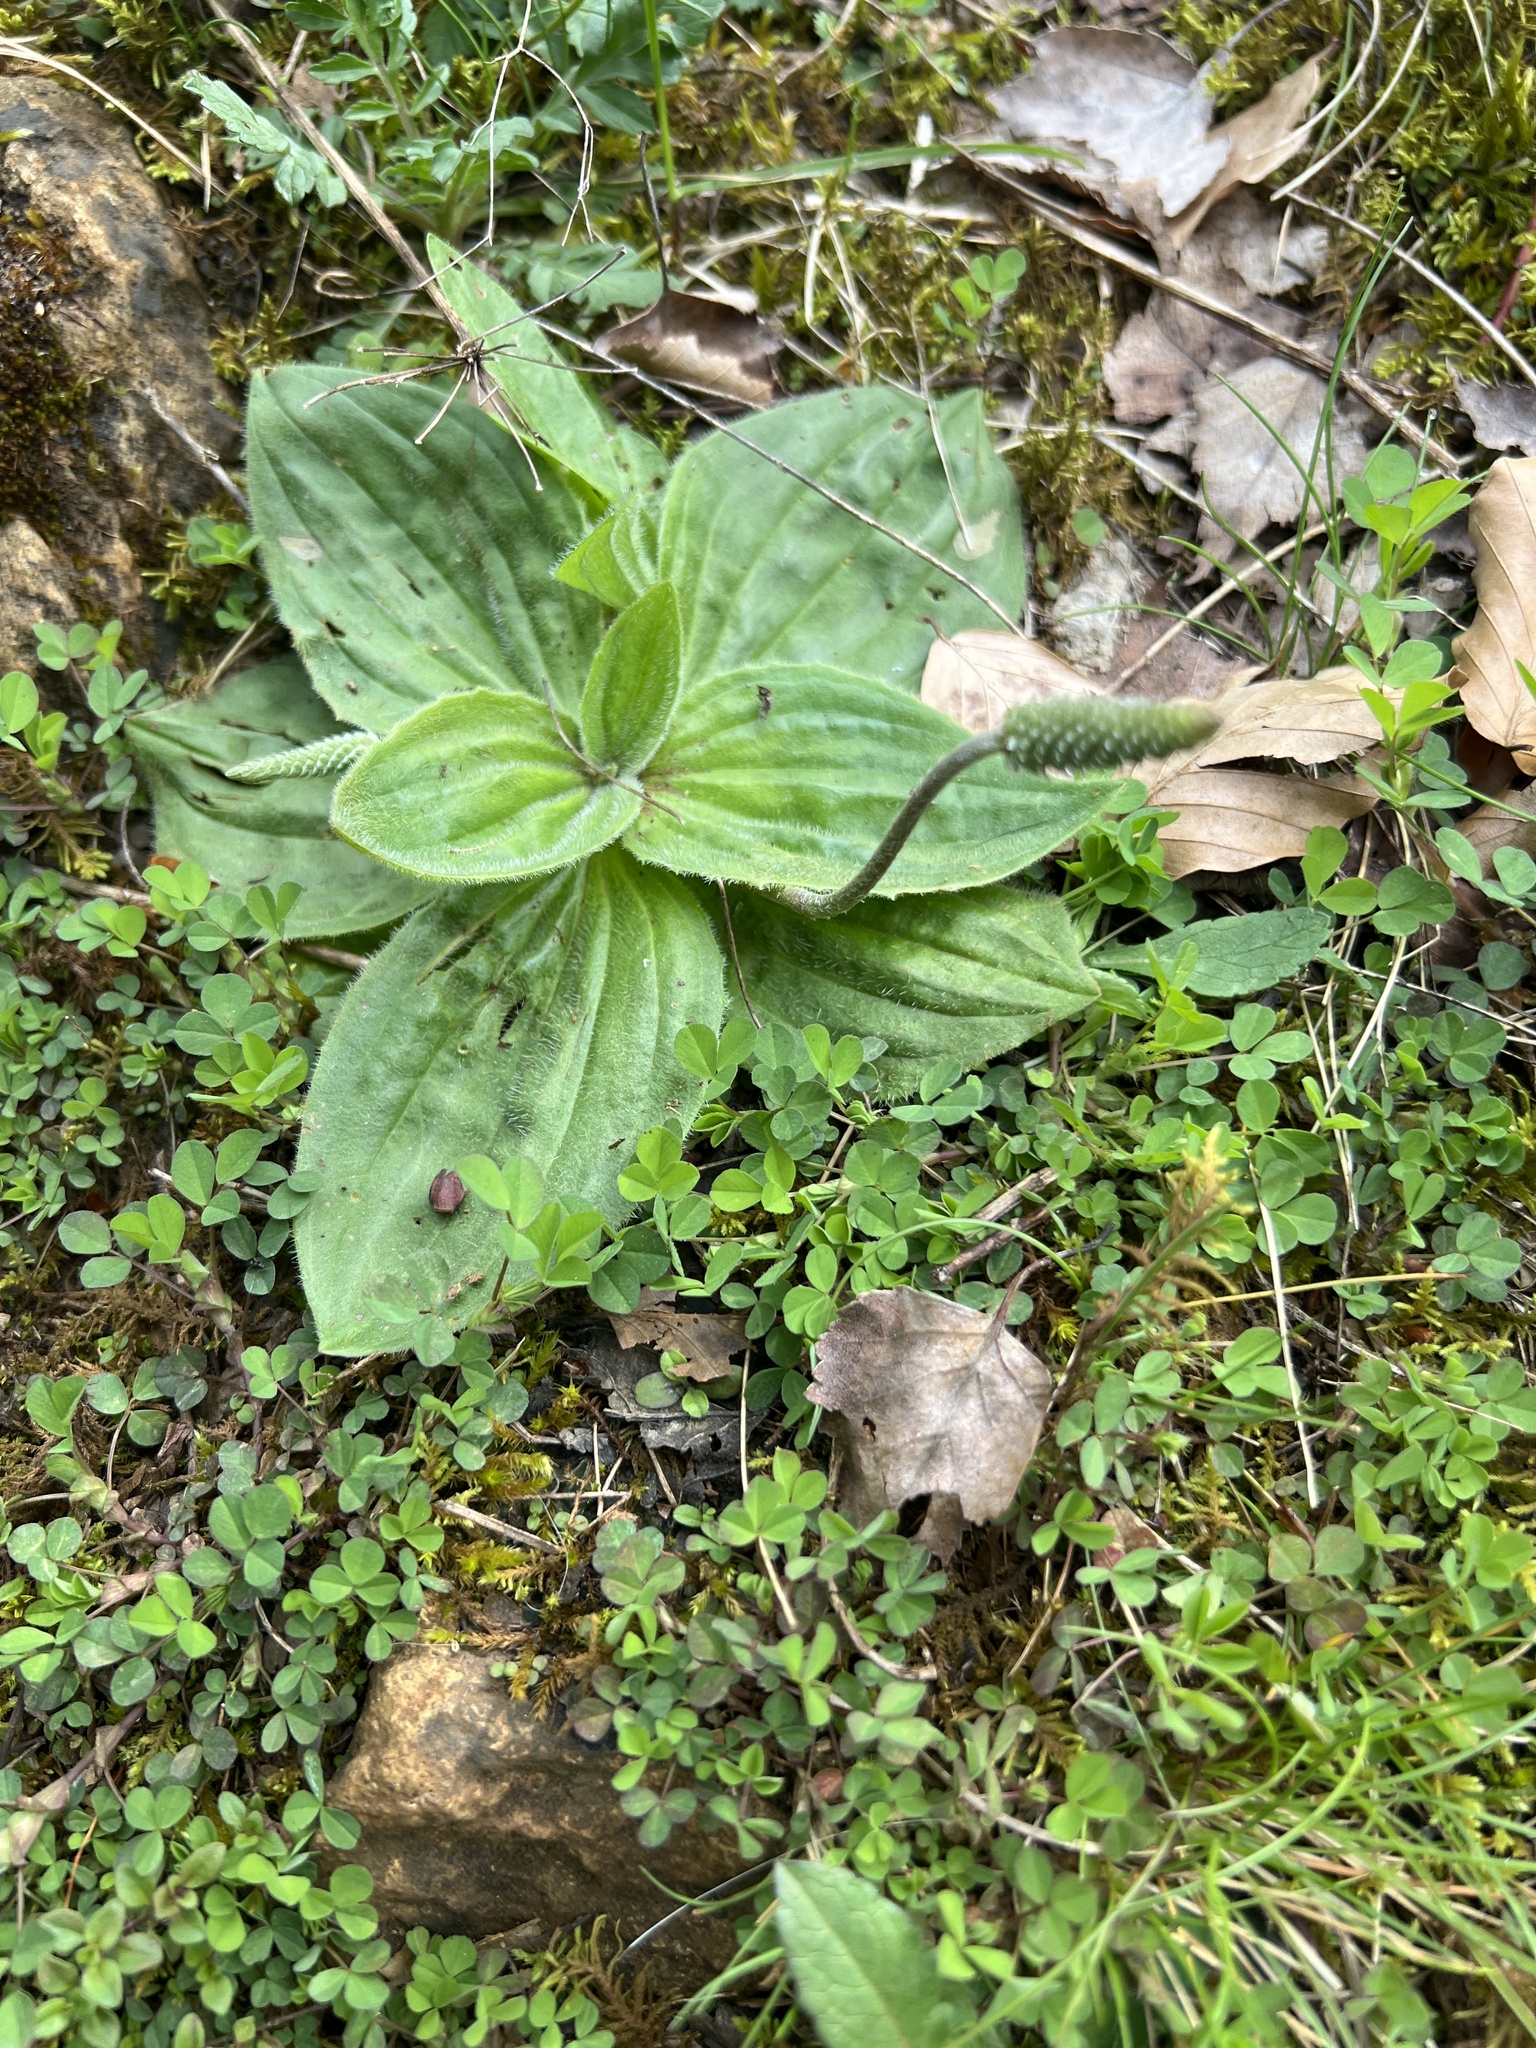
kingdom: Plantae
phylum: Tracheophyta
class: Magnoliopsida
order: Lamiales
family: Plantaginaceae
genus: Plantago
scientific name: Plantago media
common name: Hoary plantain
